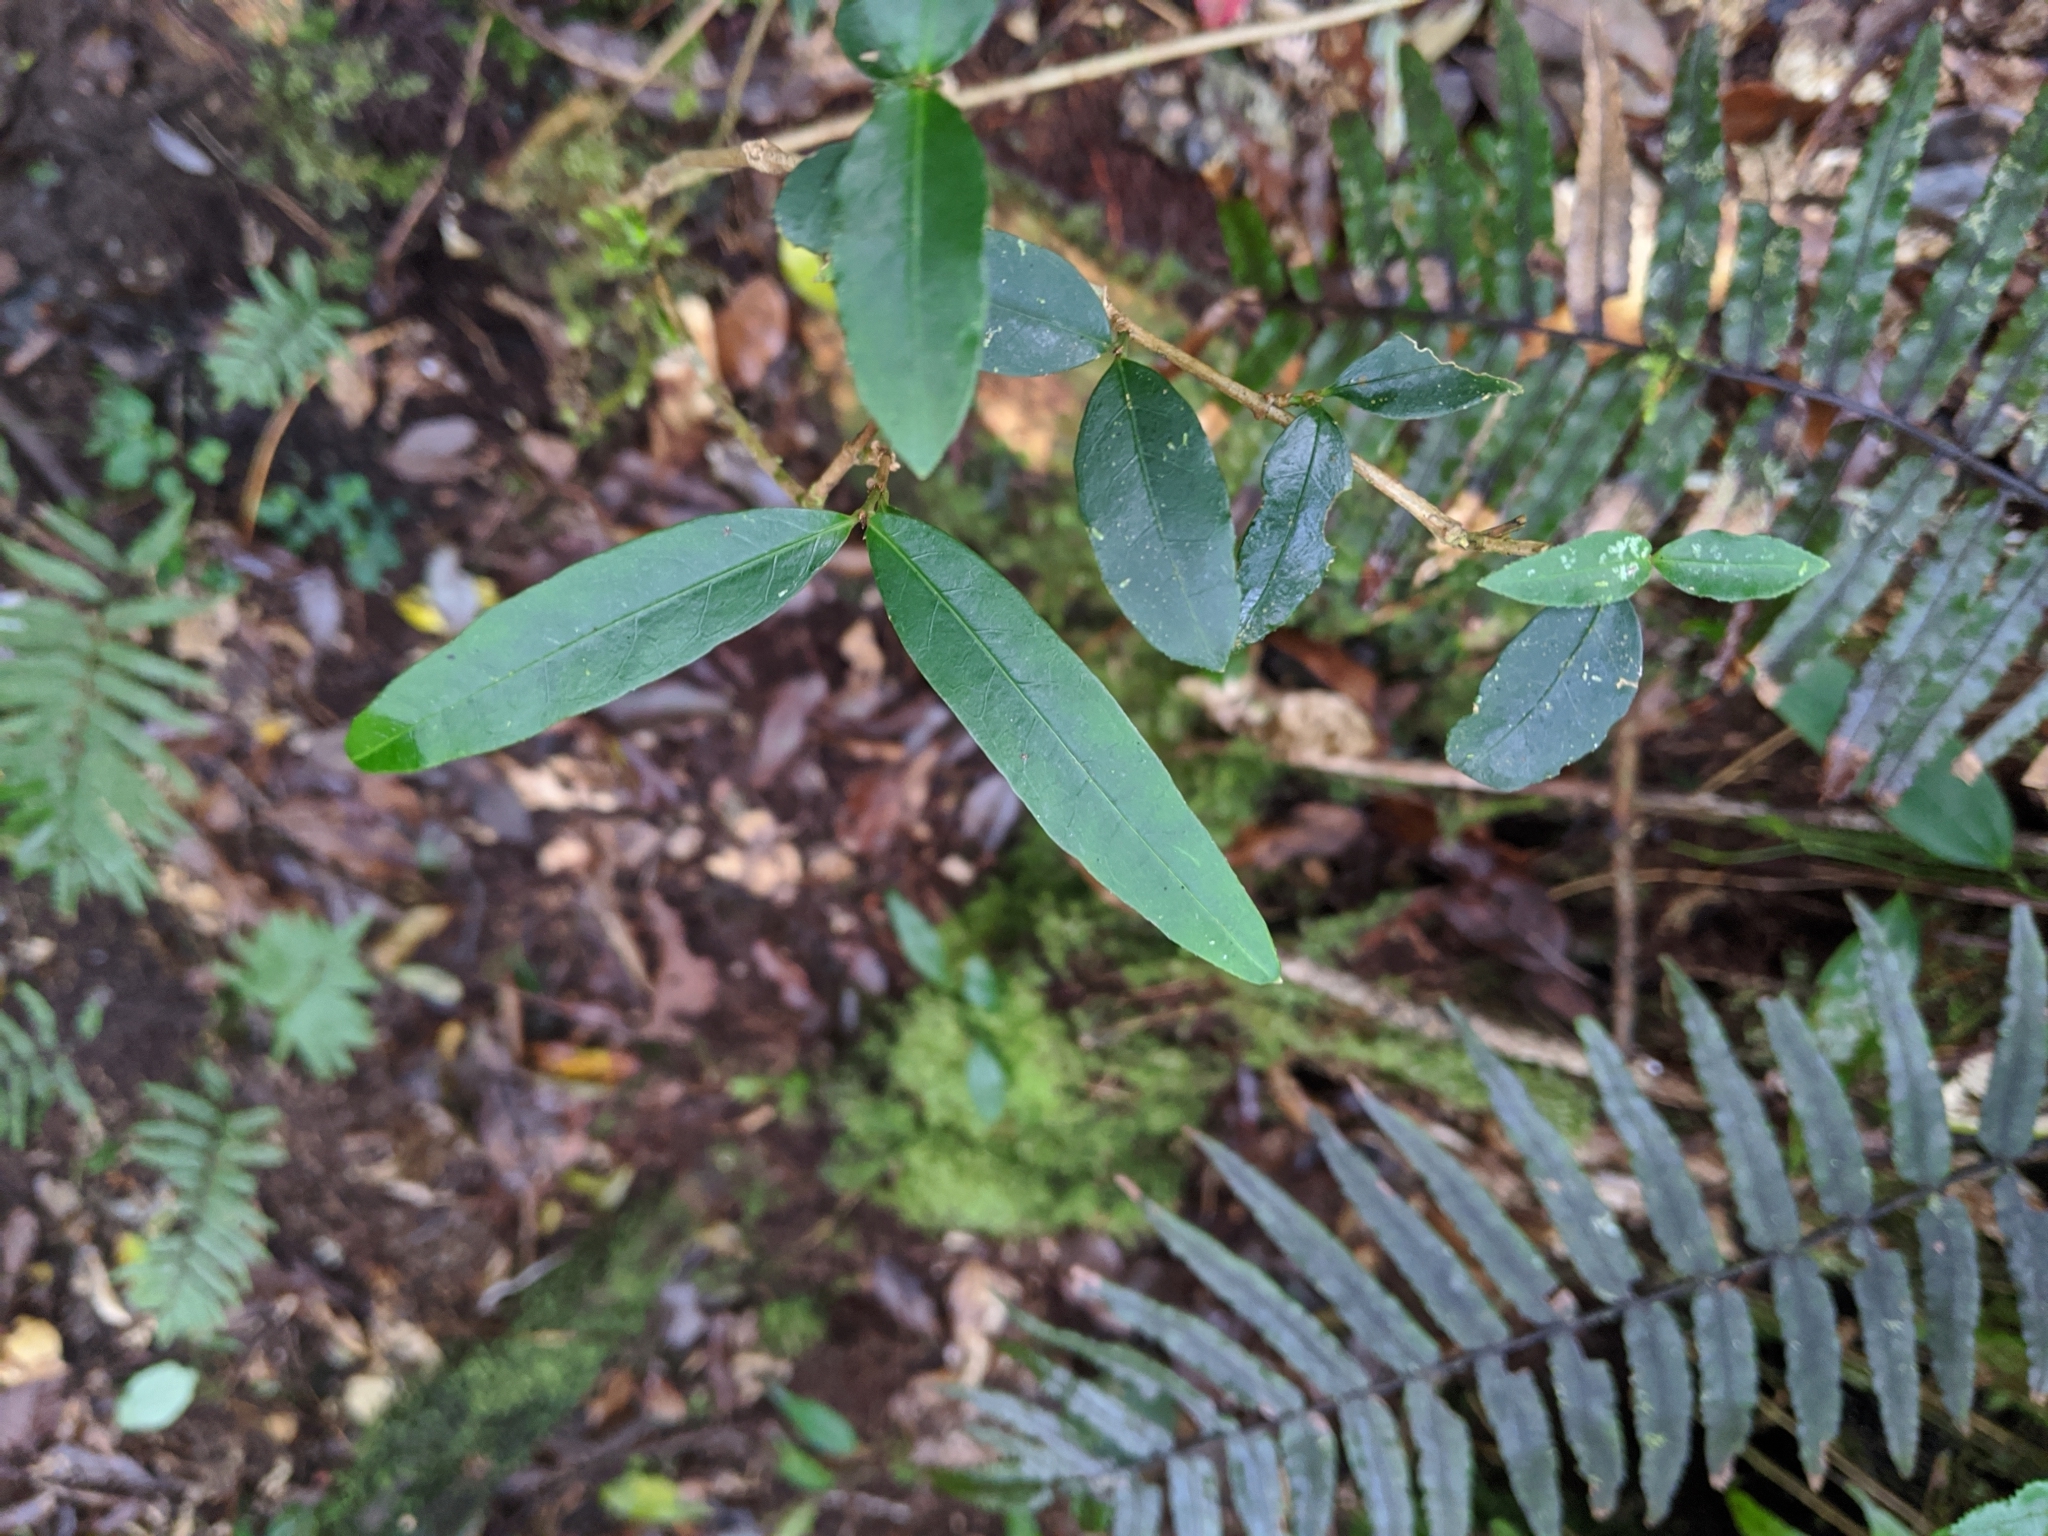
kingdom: Plantae
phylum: Tracheophyta
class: Magnoliopsida
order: Gentianales
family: Rubiaceae
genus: Damnacanthus
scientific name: Damnacanthus angustifolius
